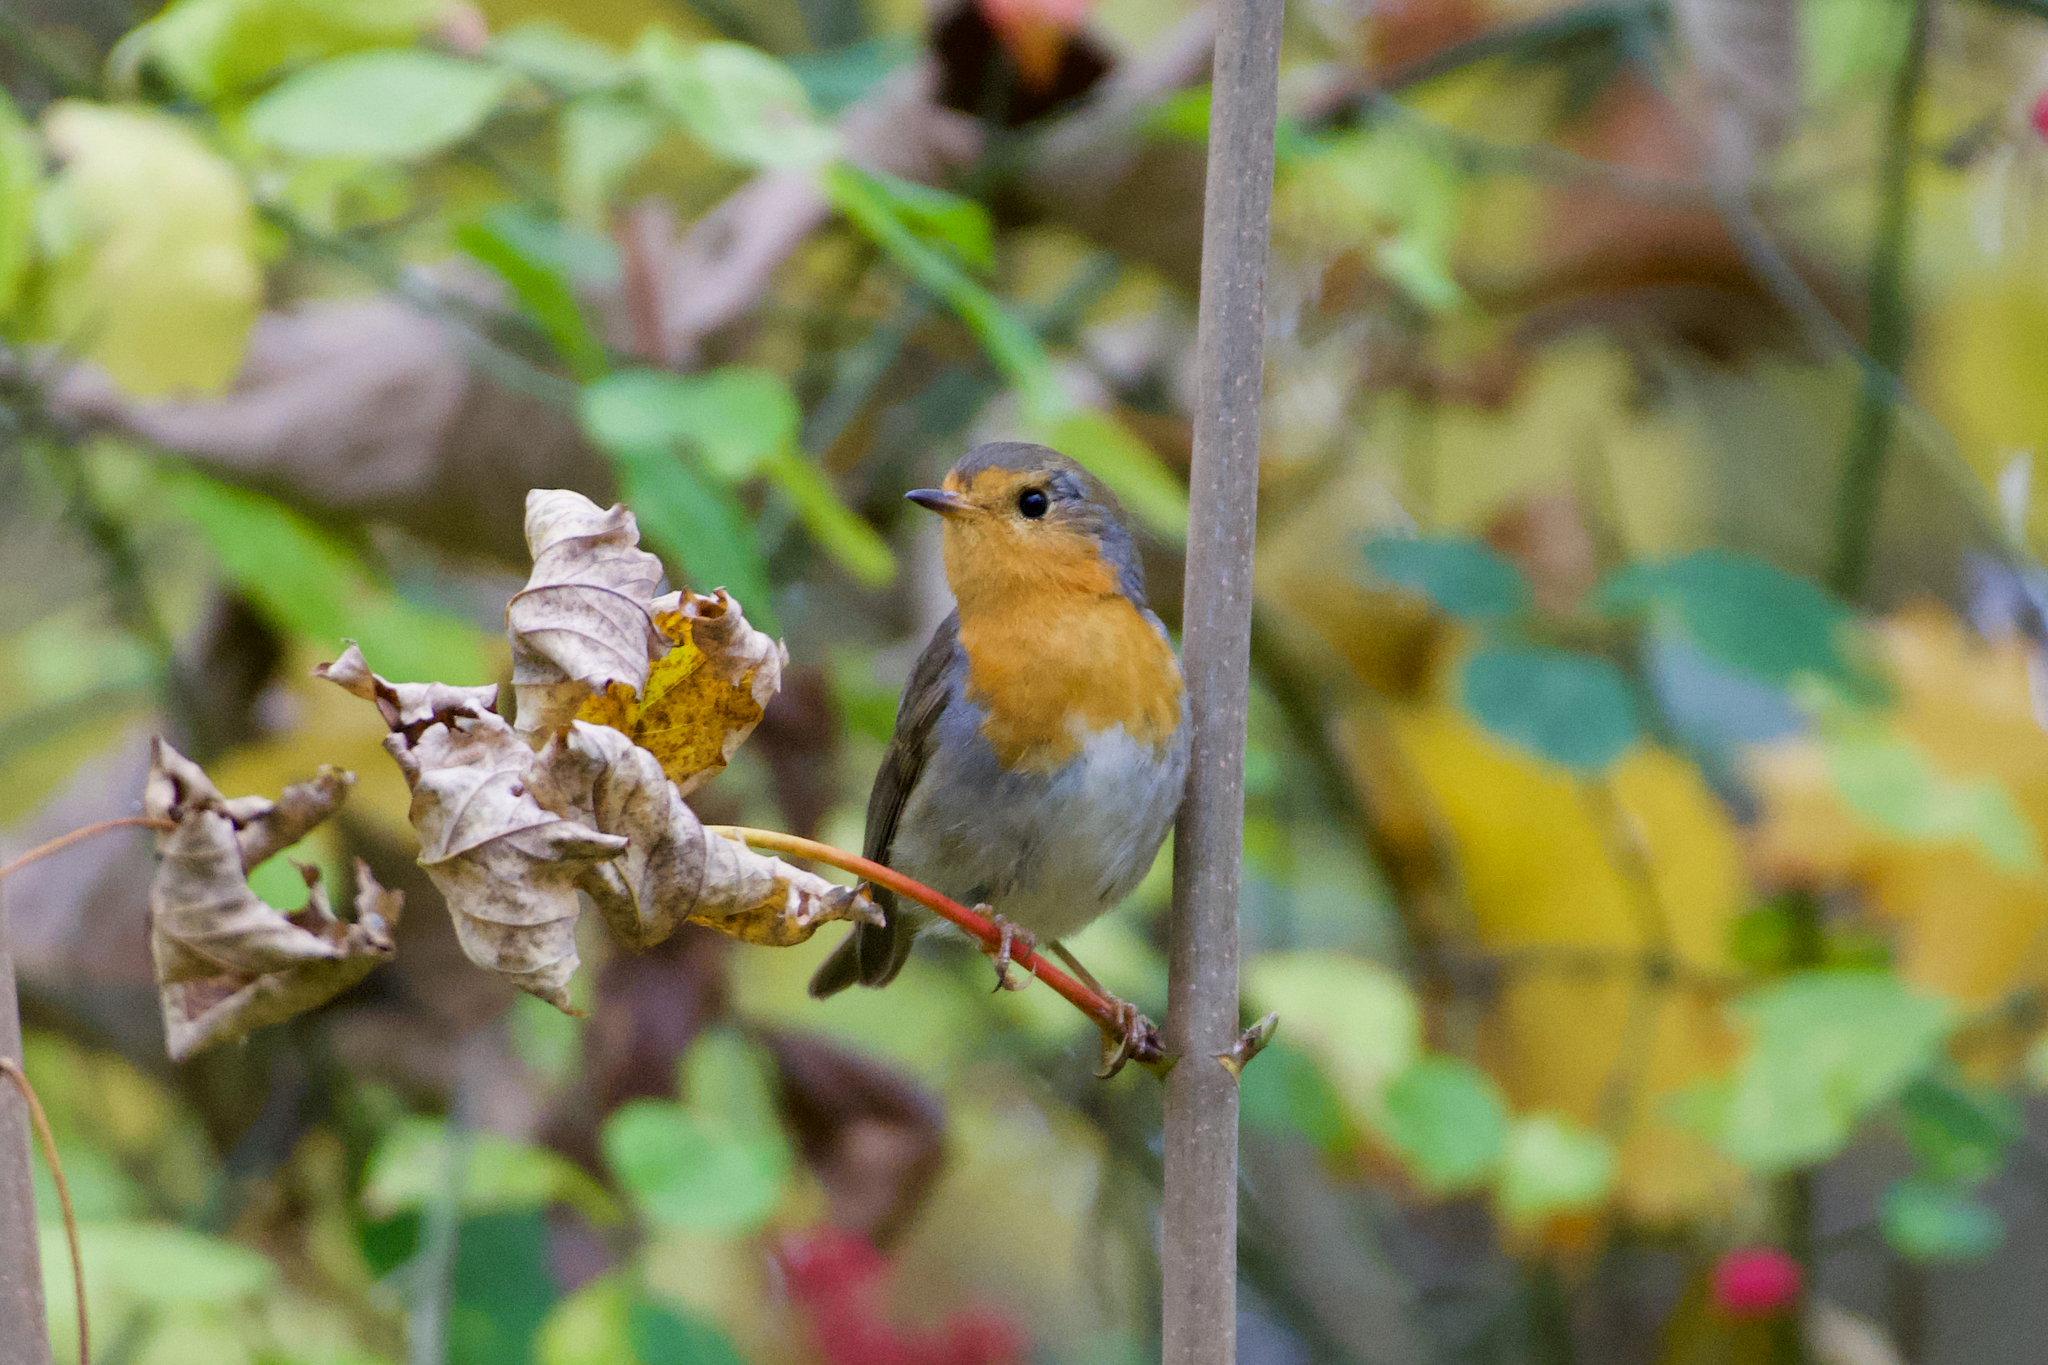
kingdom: Animalia
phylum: Chordata
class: Aves
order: Passeriformes
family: Muscicapidae
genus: Erithacus
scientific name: Erithacus rubecula
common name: European robin
